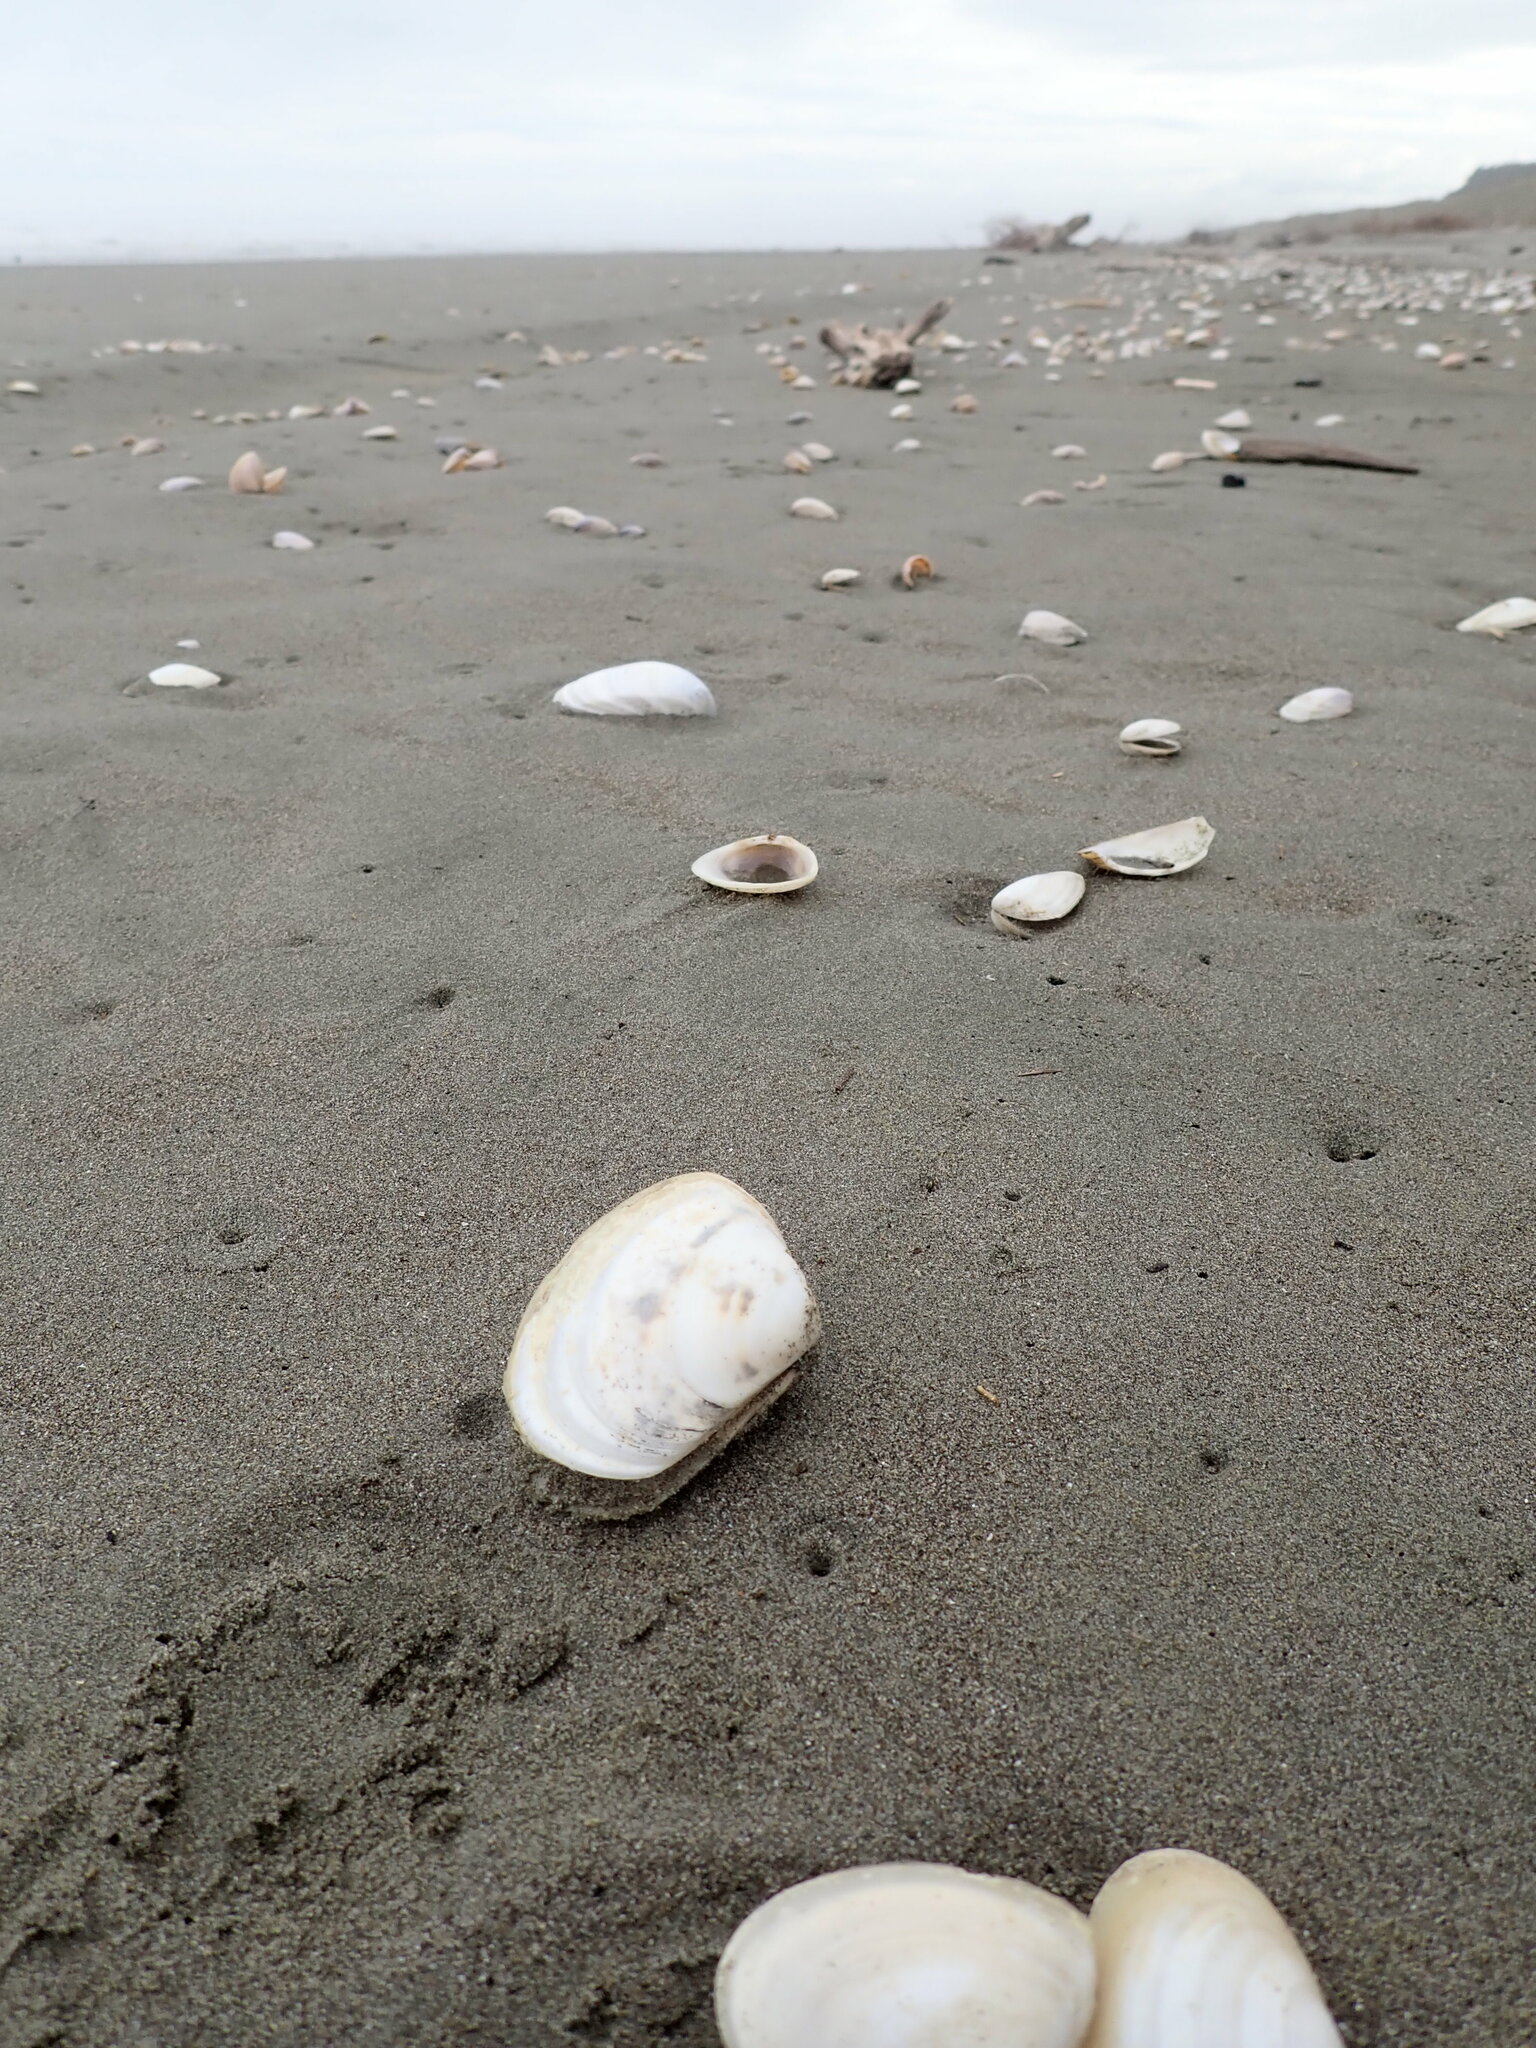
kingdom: Animalia
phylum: Mollusca
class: Bivalvia
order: Venerida
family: Mesodesmatidae
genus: Paphies
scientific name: Paphies donacina
